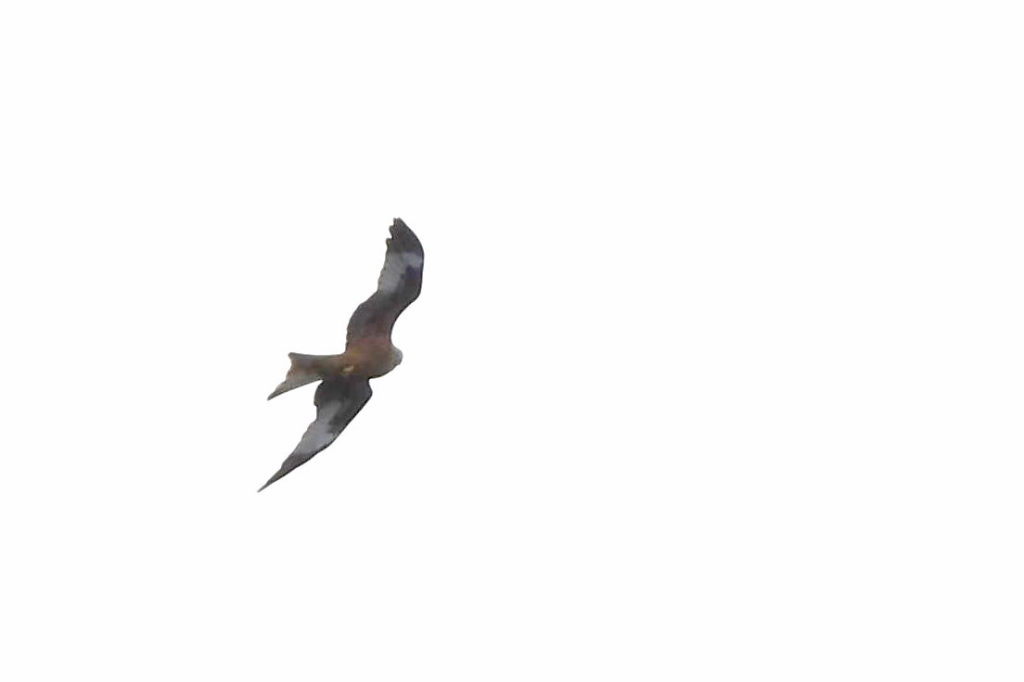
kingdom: Animalia
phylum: Chordata
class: Aves
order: Accipitriformes
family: Accipitridae
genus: Milvus
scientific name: Milvus milvus
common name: Red kite
